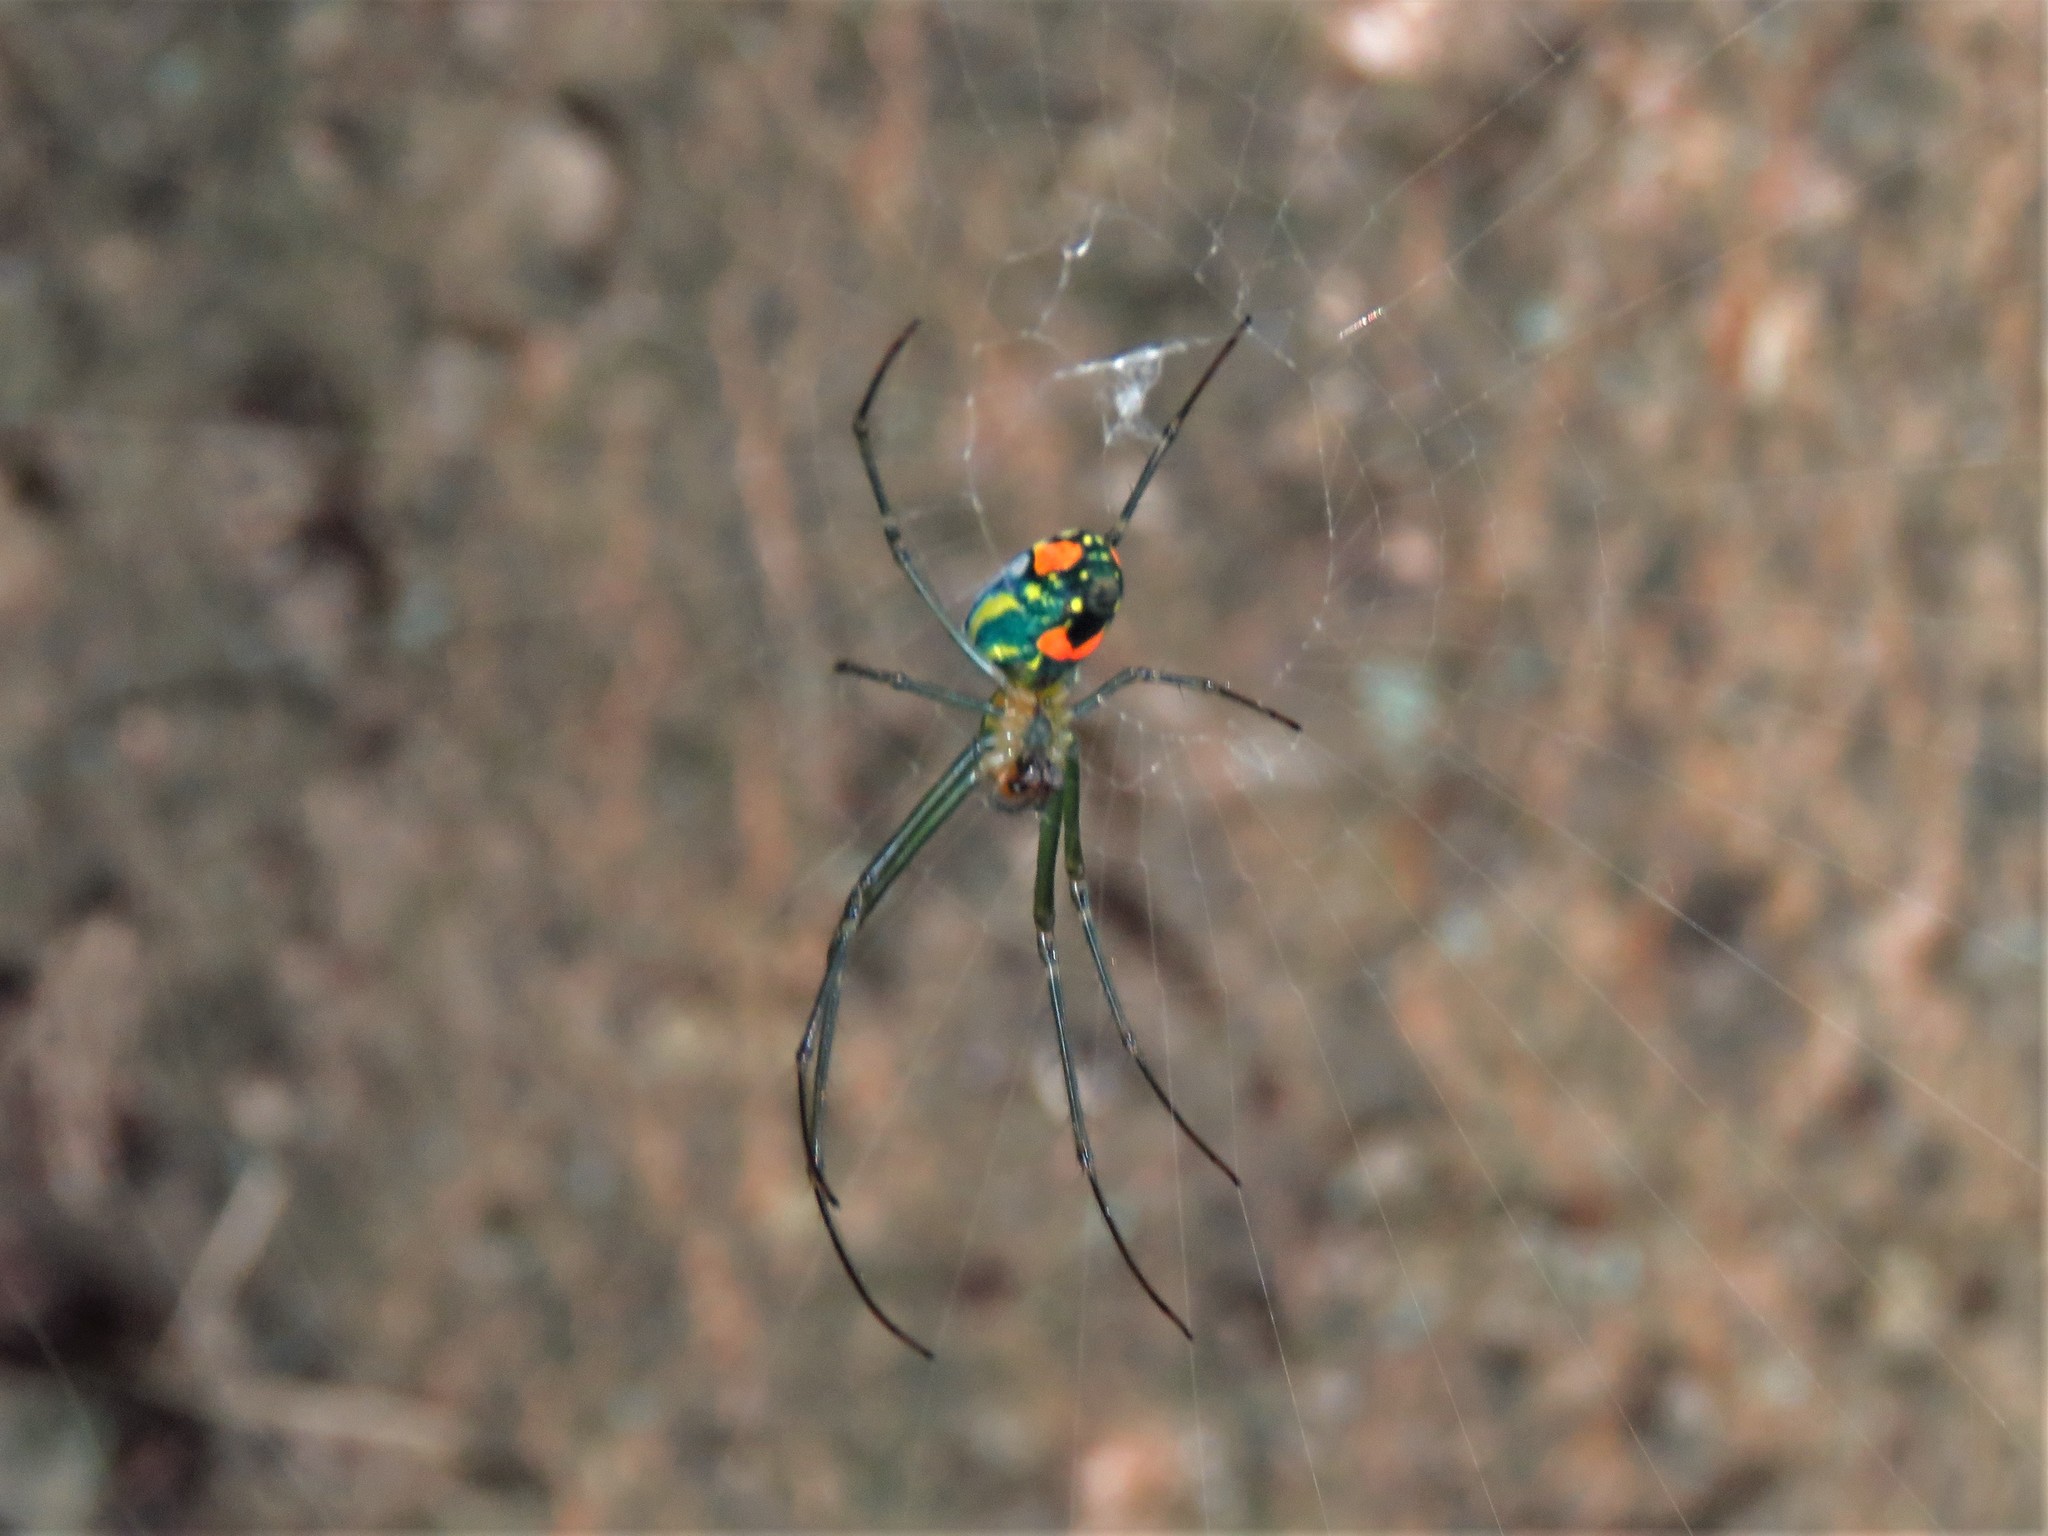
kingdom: Animalia
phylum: Arthropoda
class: Arachnida
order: Araneae
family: Tetragnathidae
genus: Leucauge
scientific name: Leucauge argyrobapta
